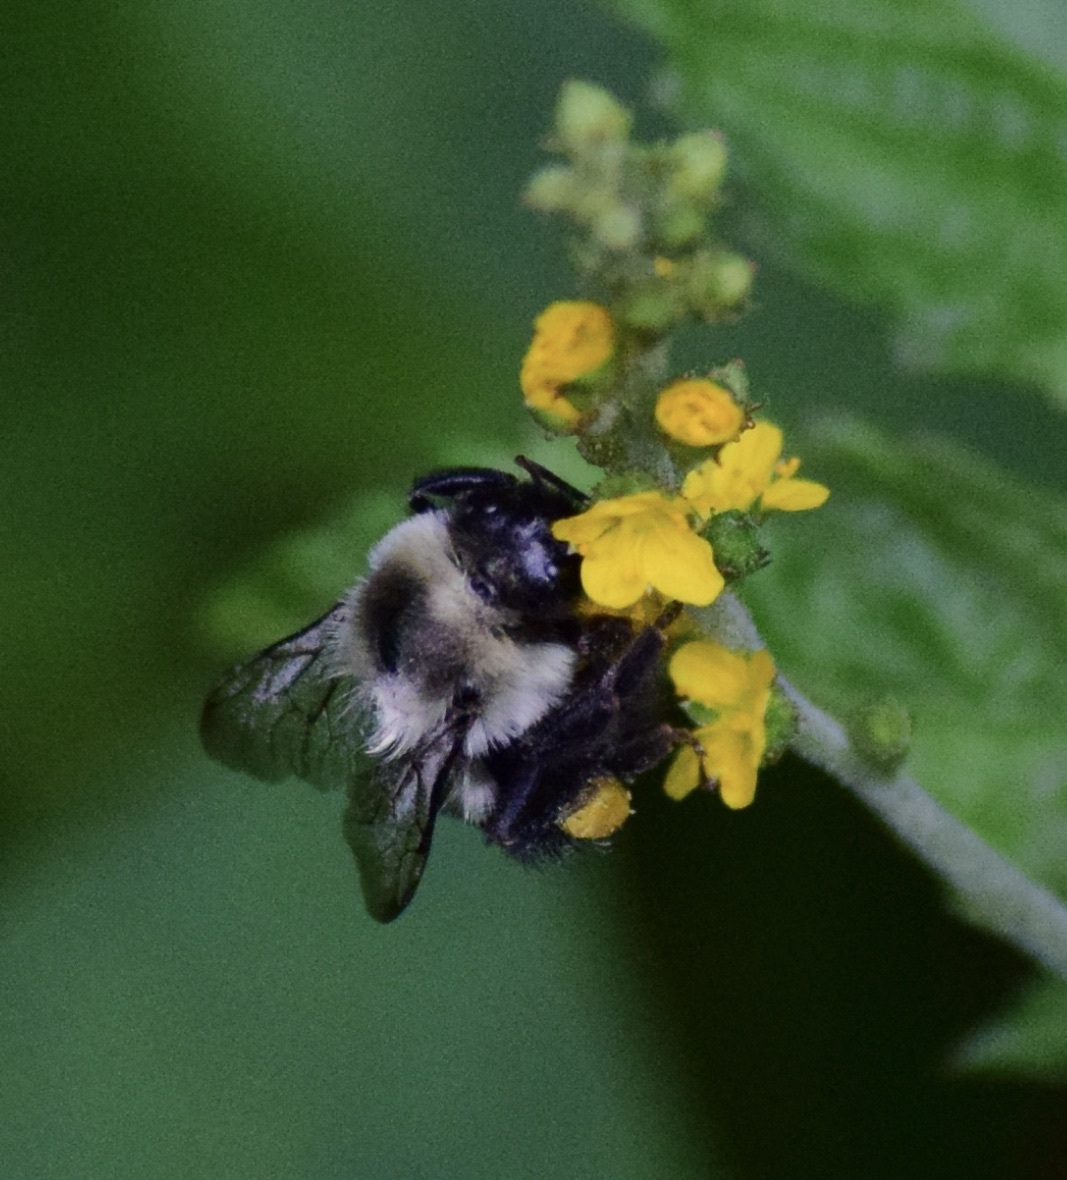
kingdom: Animalia
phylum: Arthropoda
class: Insecta
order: Hymenoptera
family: Apidae
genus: Bombus
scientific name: Bombus impatiens
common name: Common eastern bumble bee
